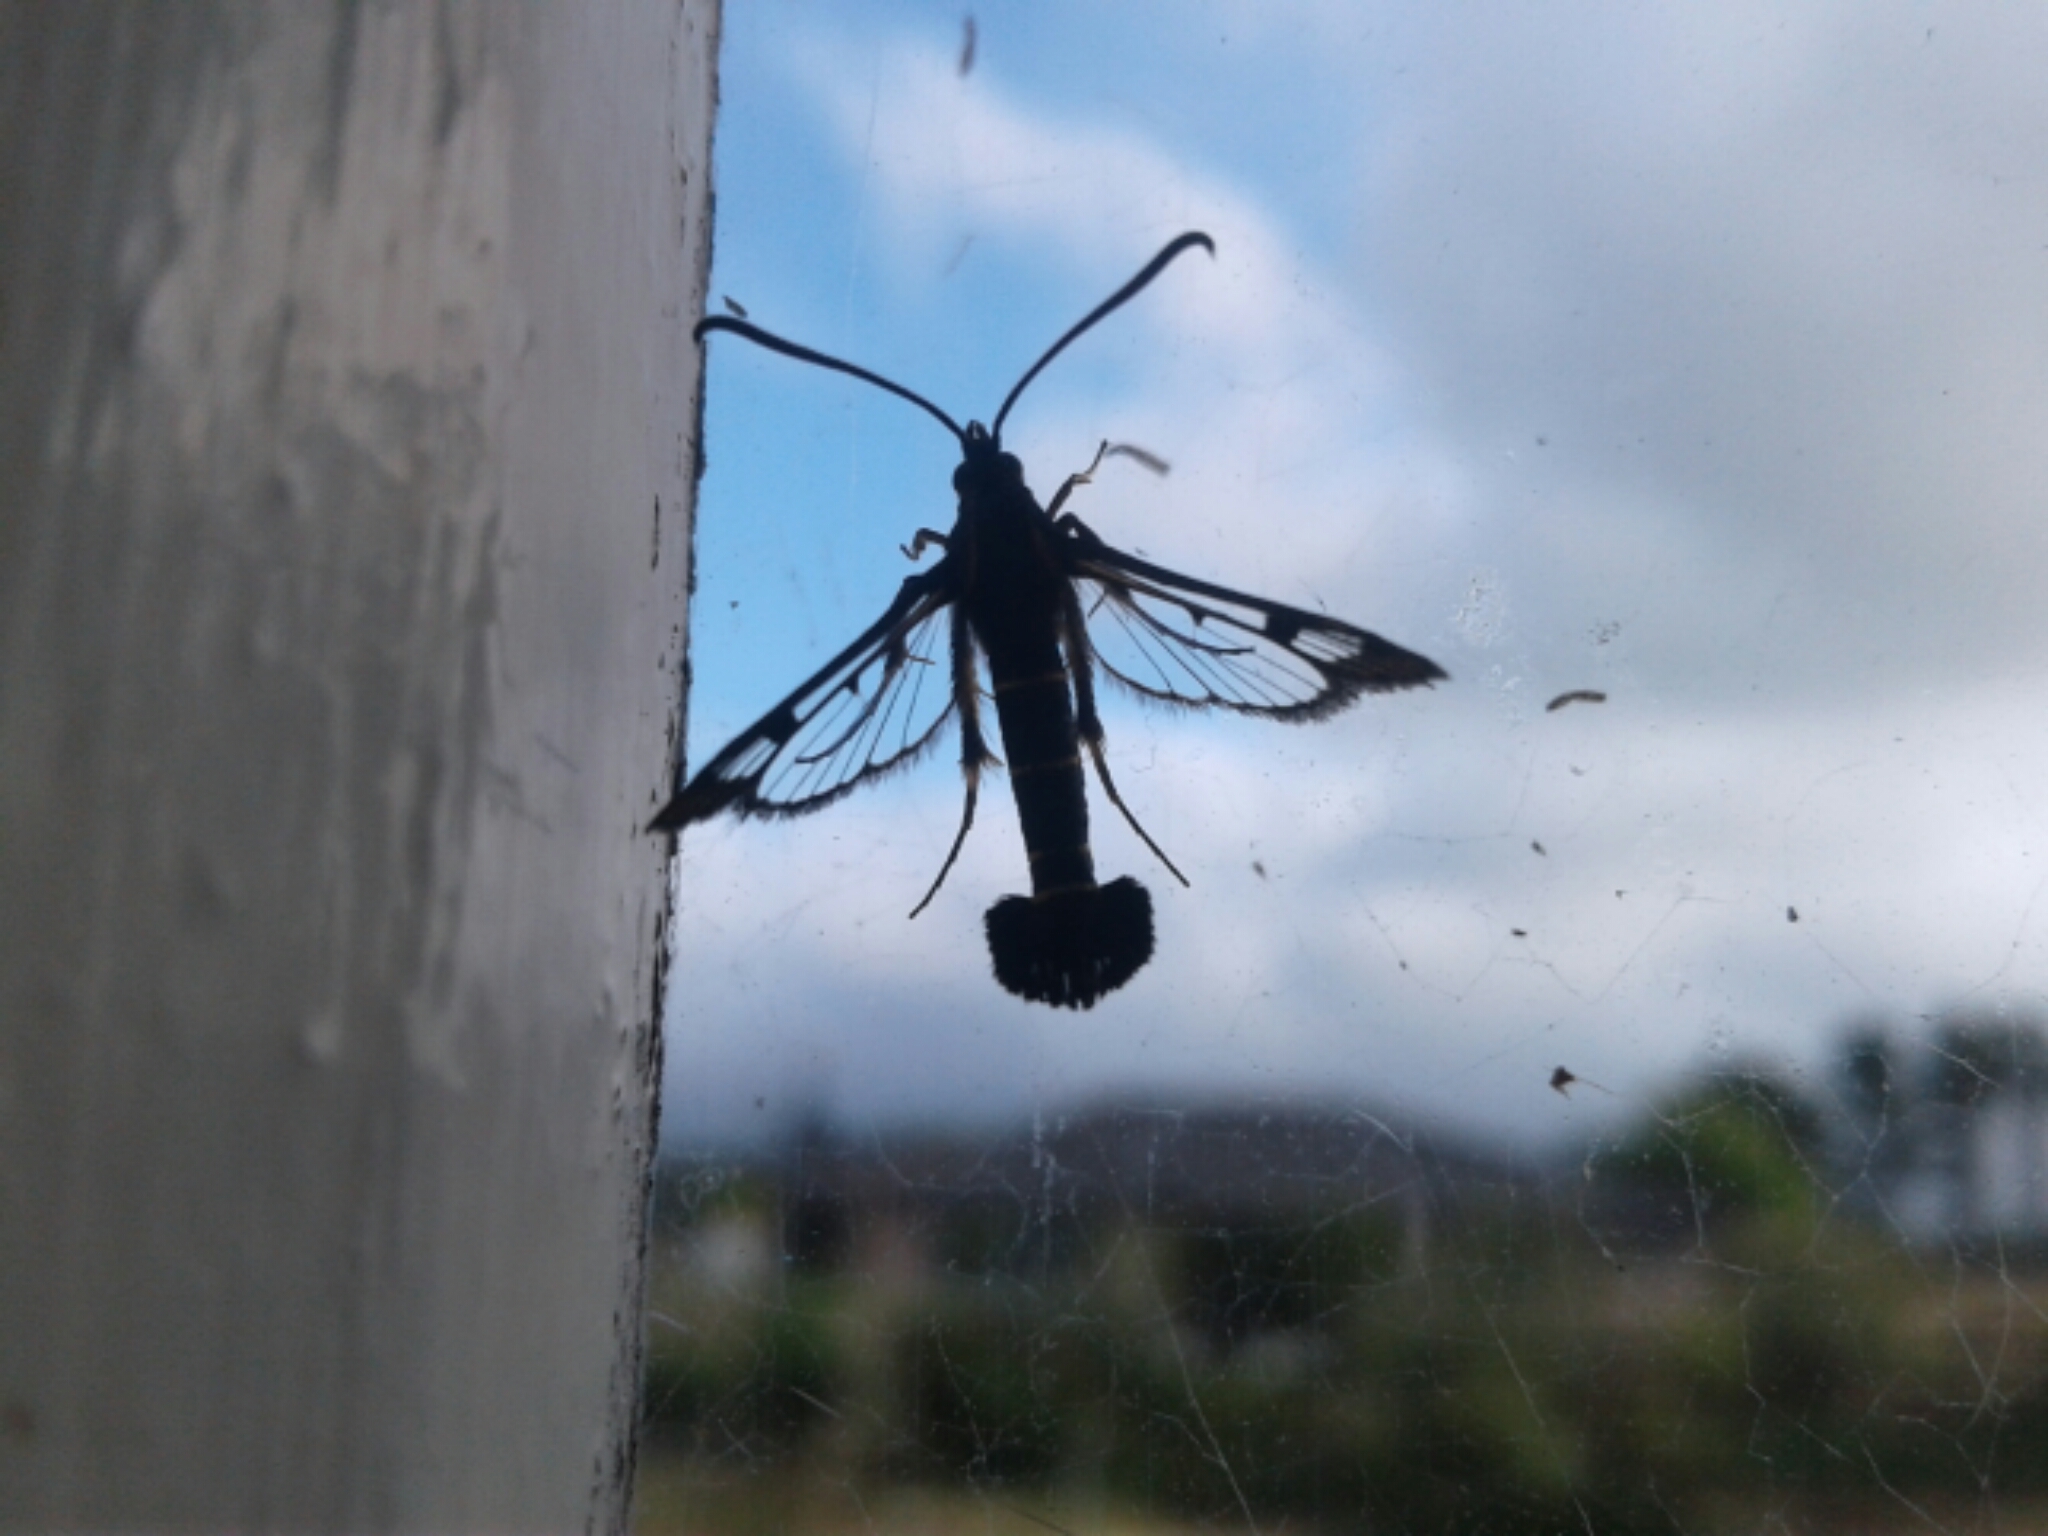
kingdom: Animalia
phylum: Arthropoda
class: Insecta
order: Lepidoptera
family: Sesiidae
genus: Synanthedon
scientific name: Synanthedon tipuliformis
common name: Currant clearwing
